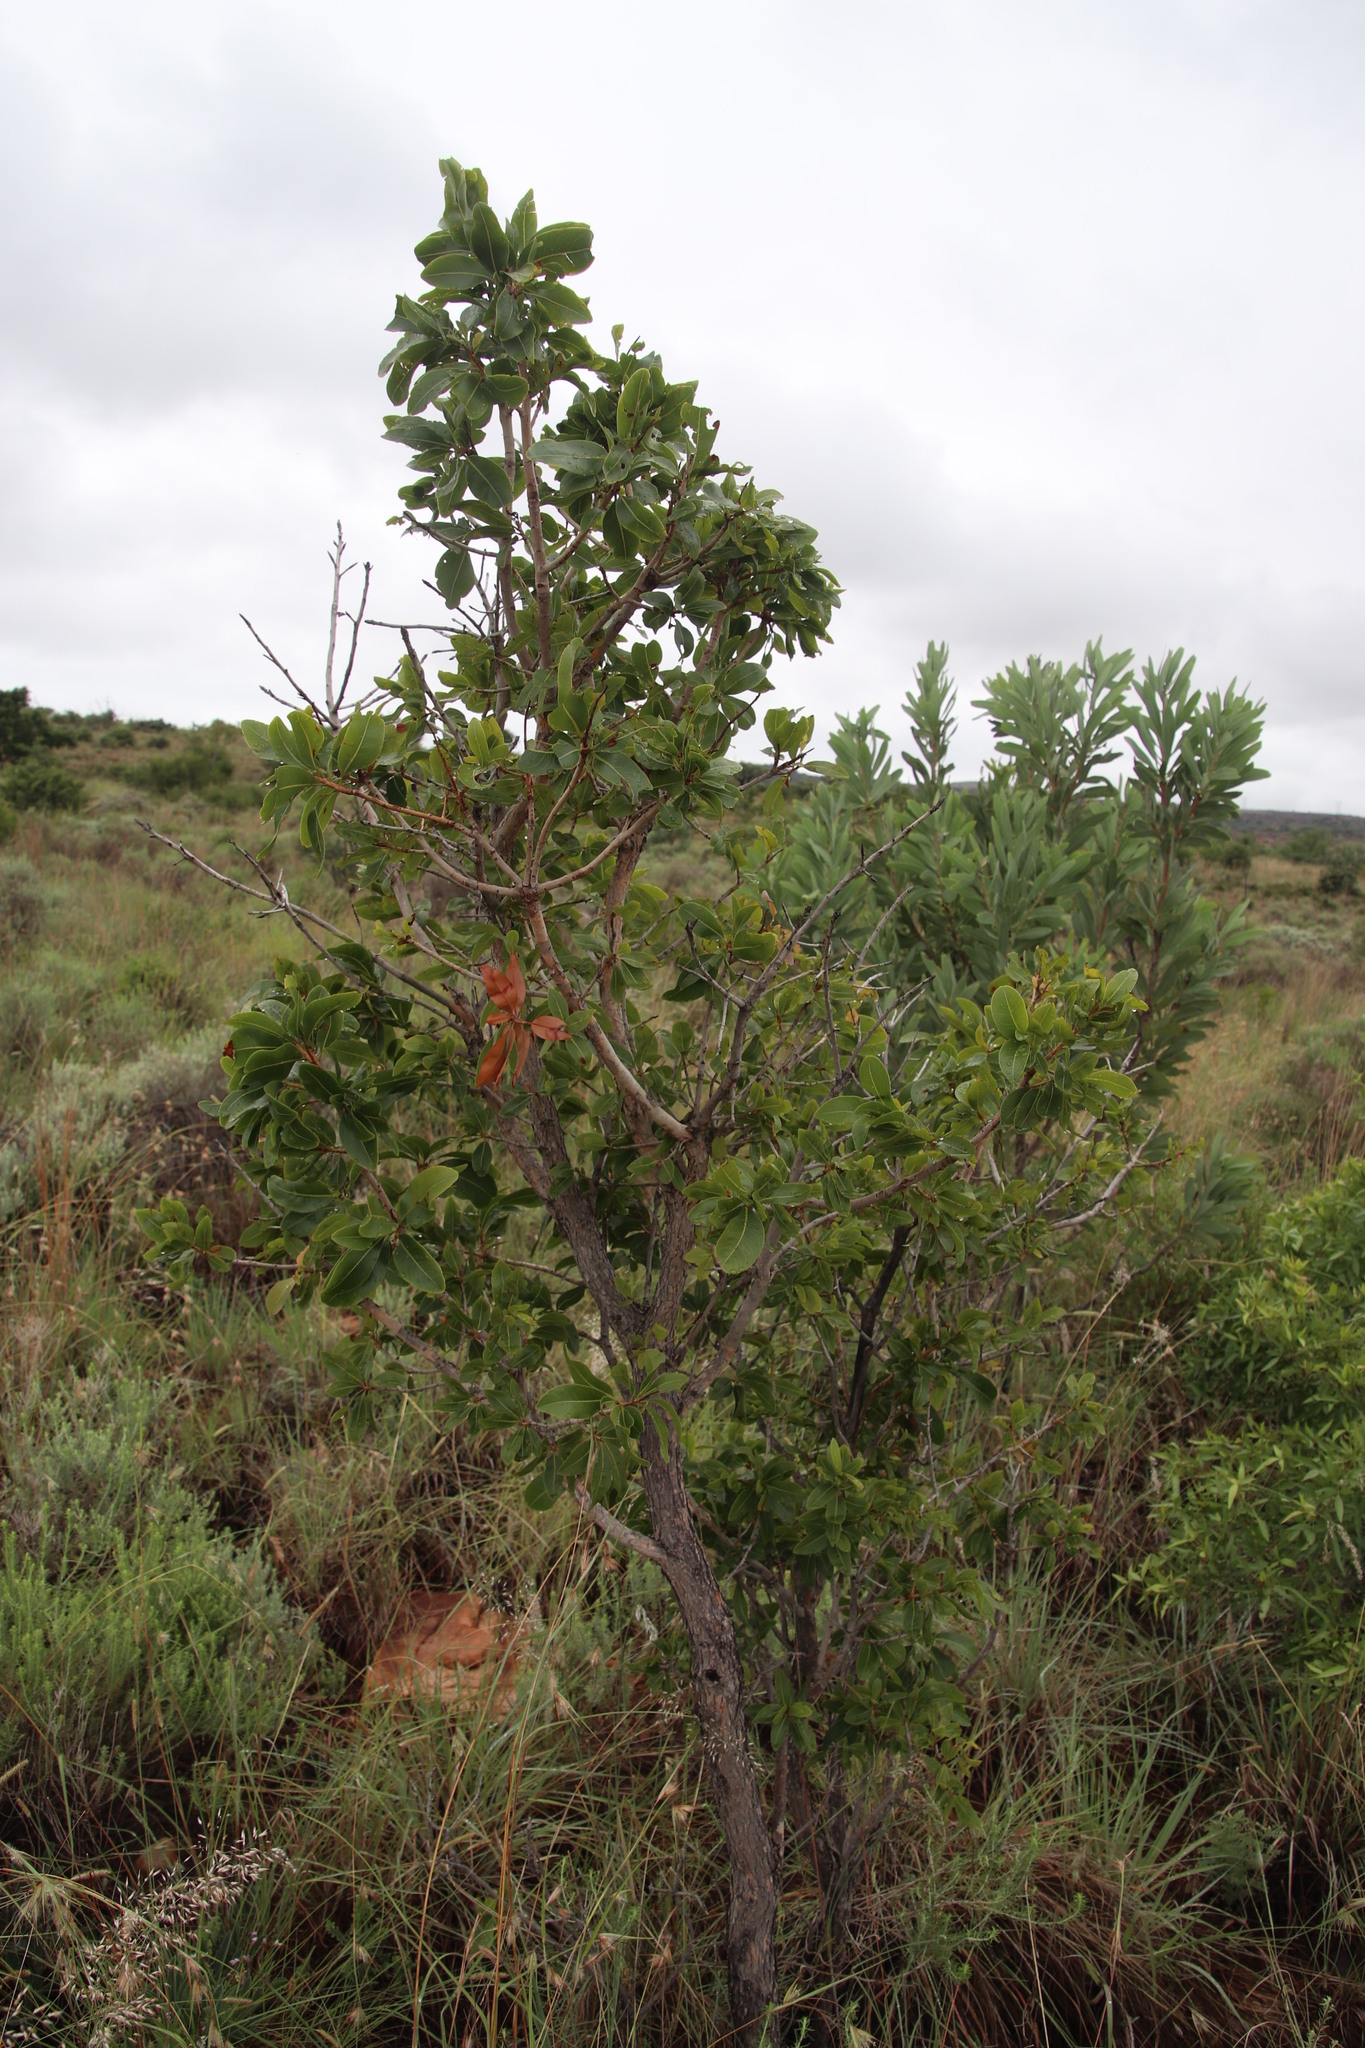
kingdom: Plantae
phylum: Tracheophyta
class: Magnoliopsida
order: Malpighiales
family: Ochnaceae
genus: Ochna
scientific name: Ochna pulchra
